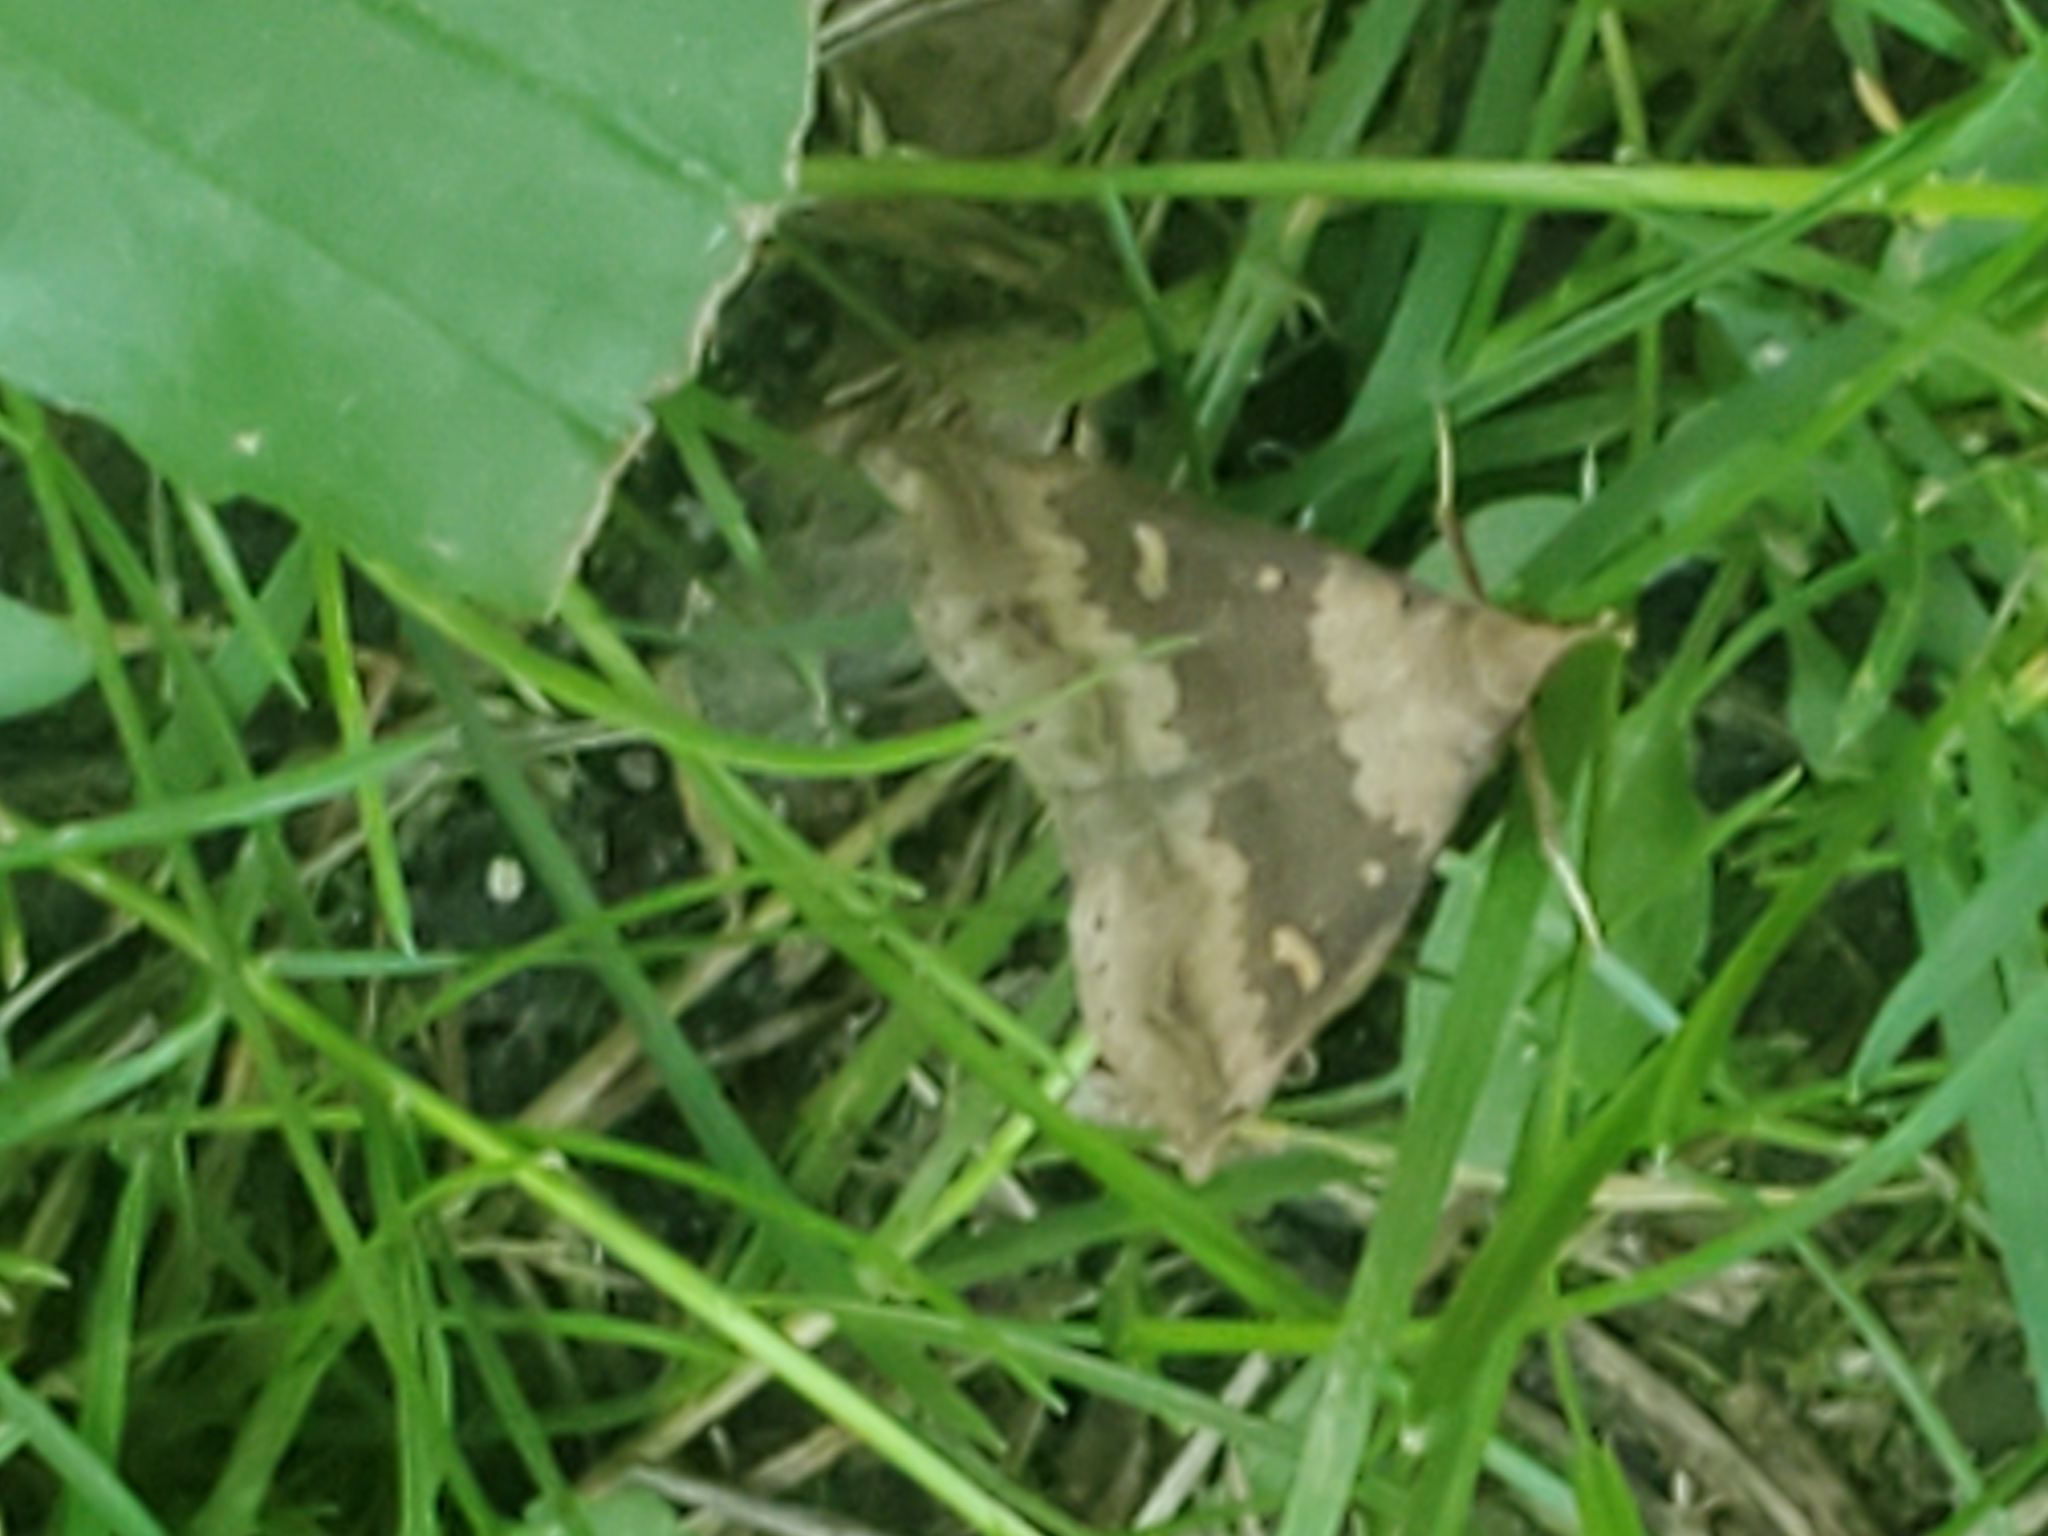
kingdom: Animalia
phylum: Arthropoda
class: Insecta
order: Lepidoptera
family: Erebidae
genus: Renia
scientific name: Renia discoloralis
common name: Discolored renia moth
